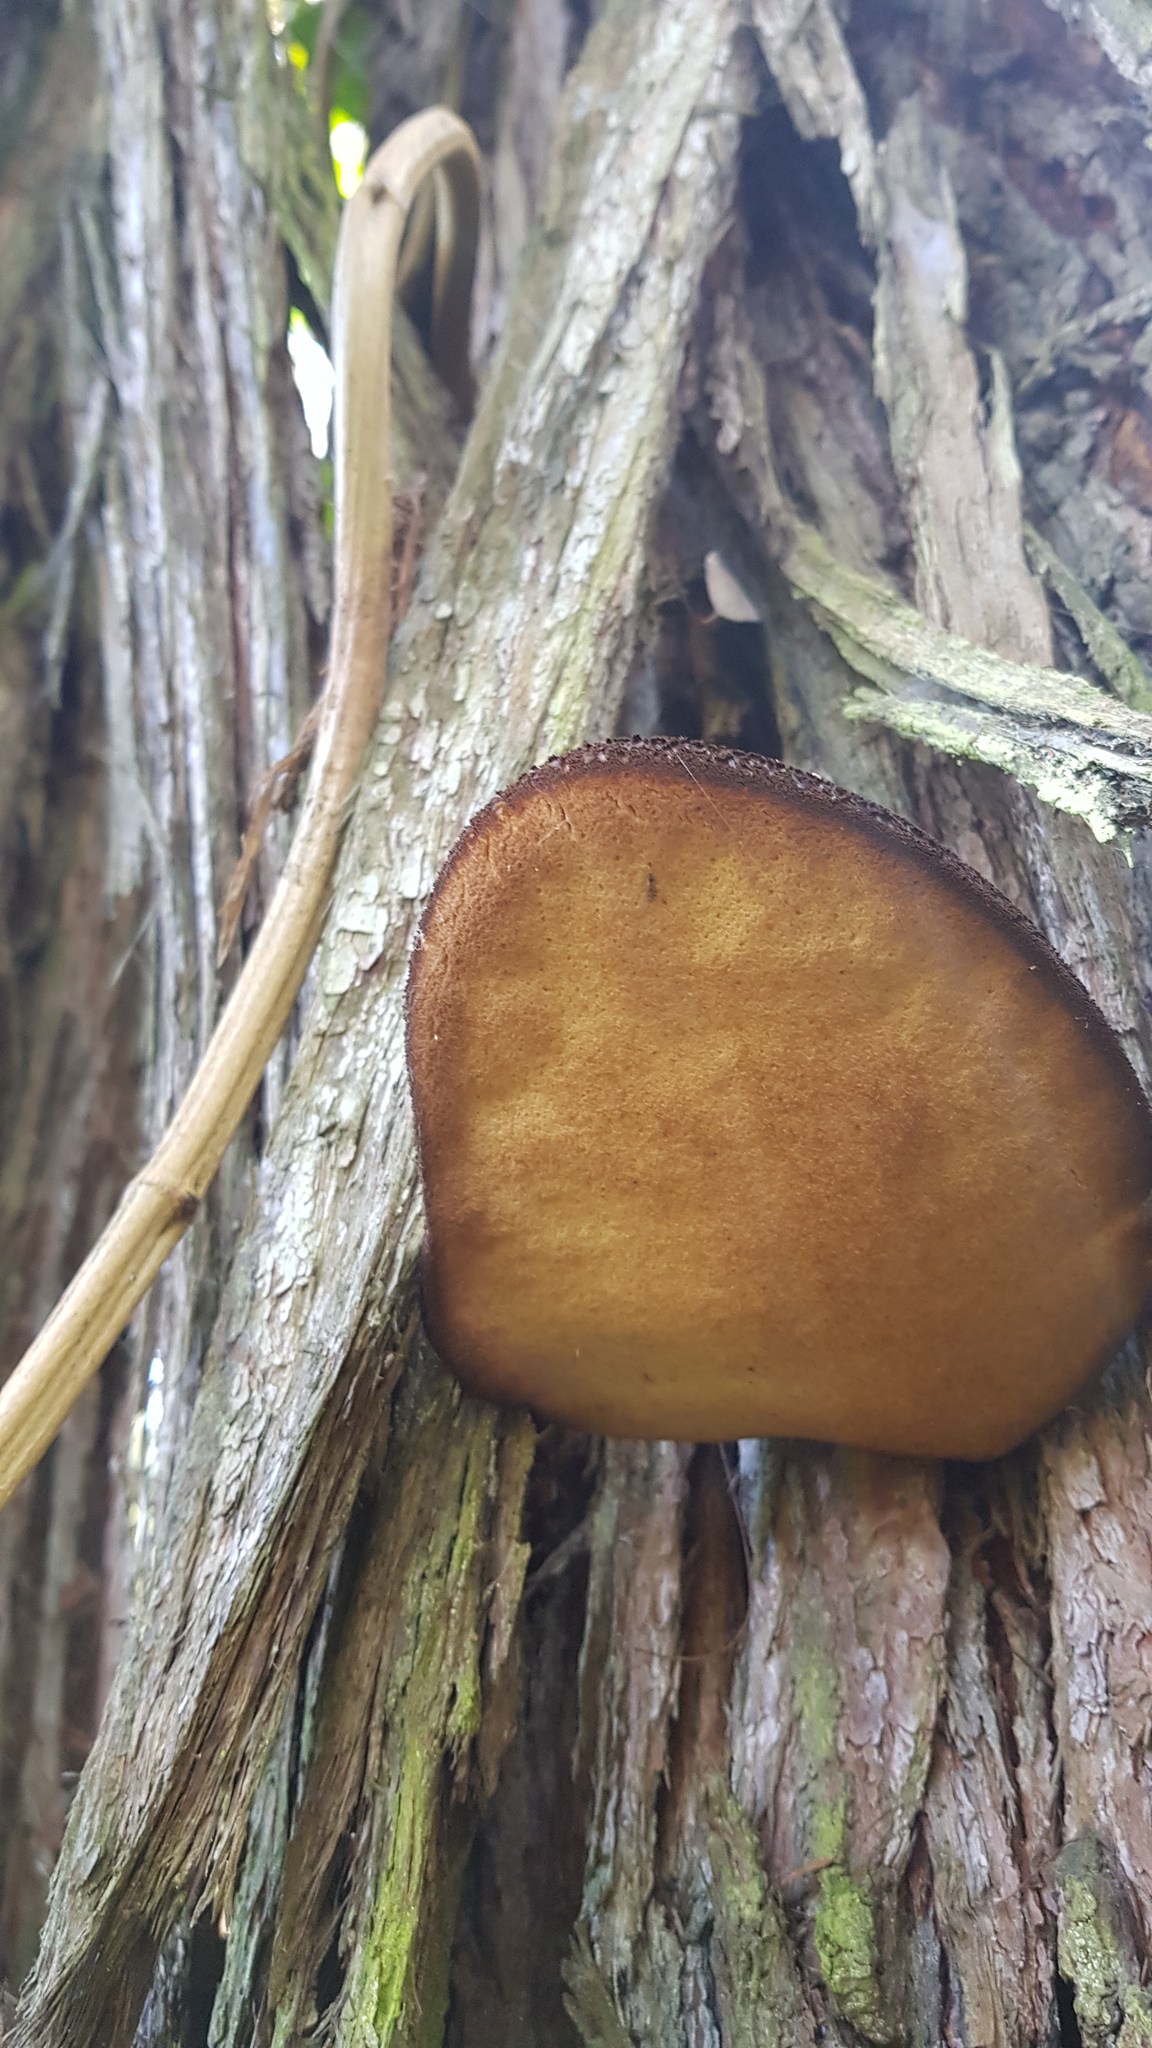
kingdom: Fungi
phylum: Basidiomycota
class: Agaricomycetes
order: Agaricales
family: Fistulinaceae
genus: Fistulina
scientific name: Fistulina spiculifera
